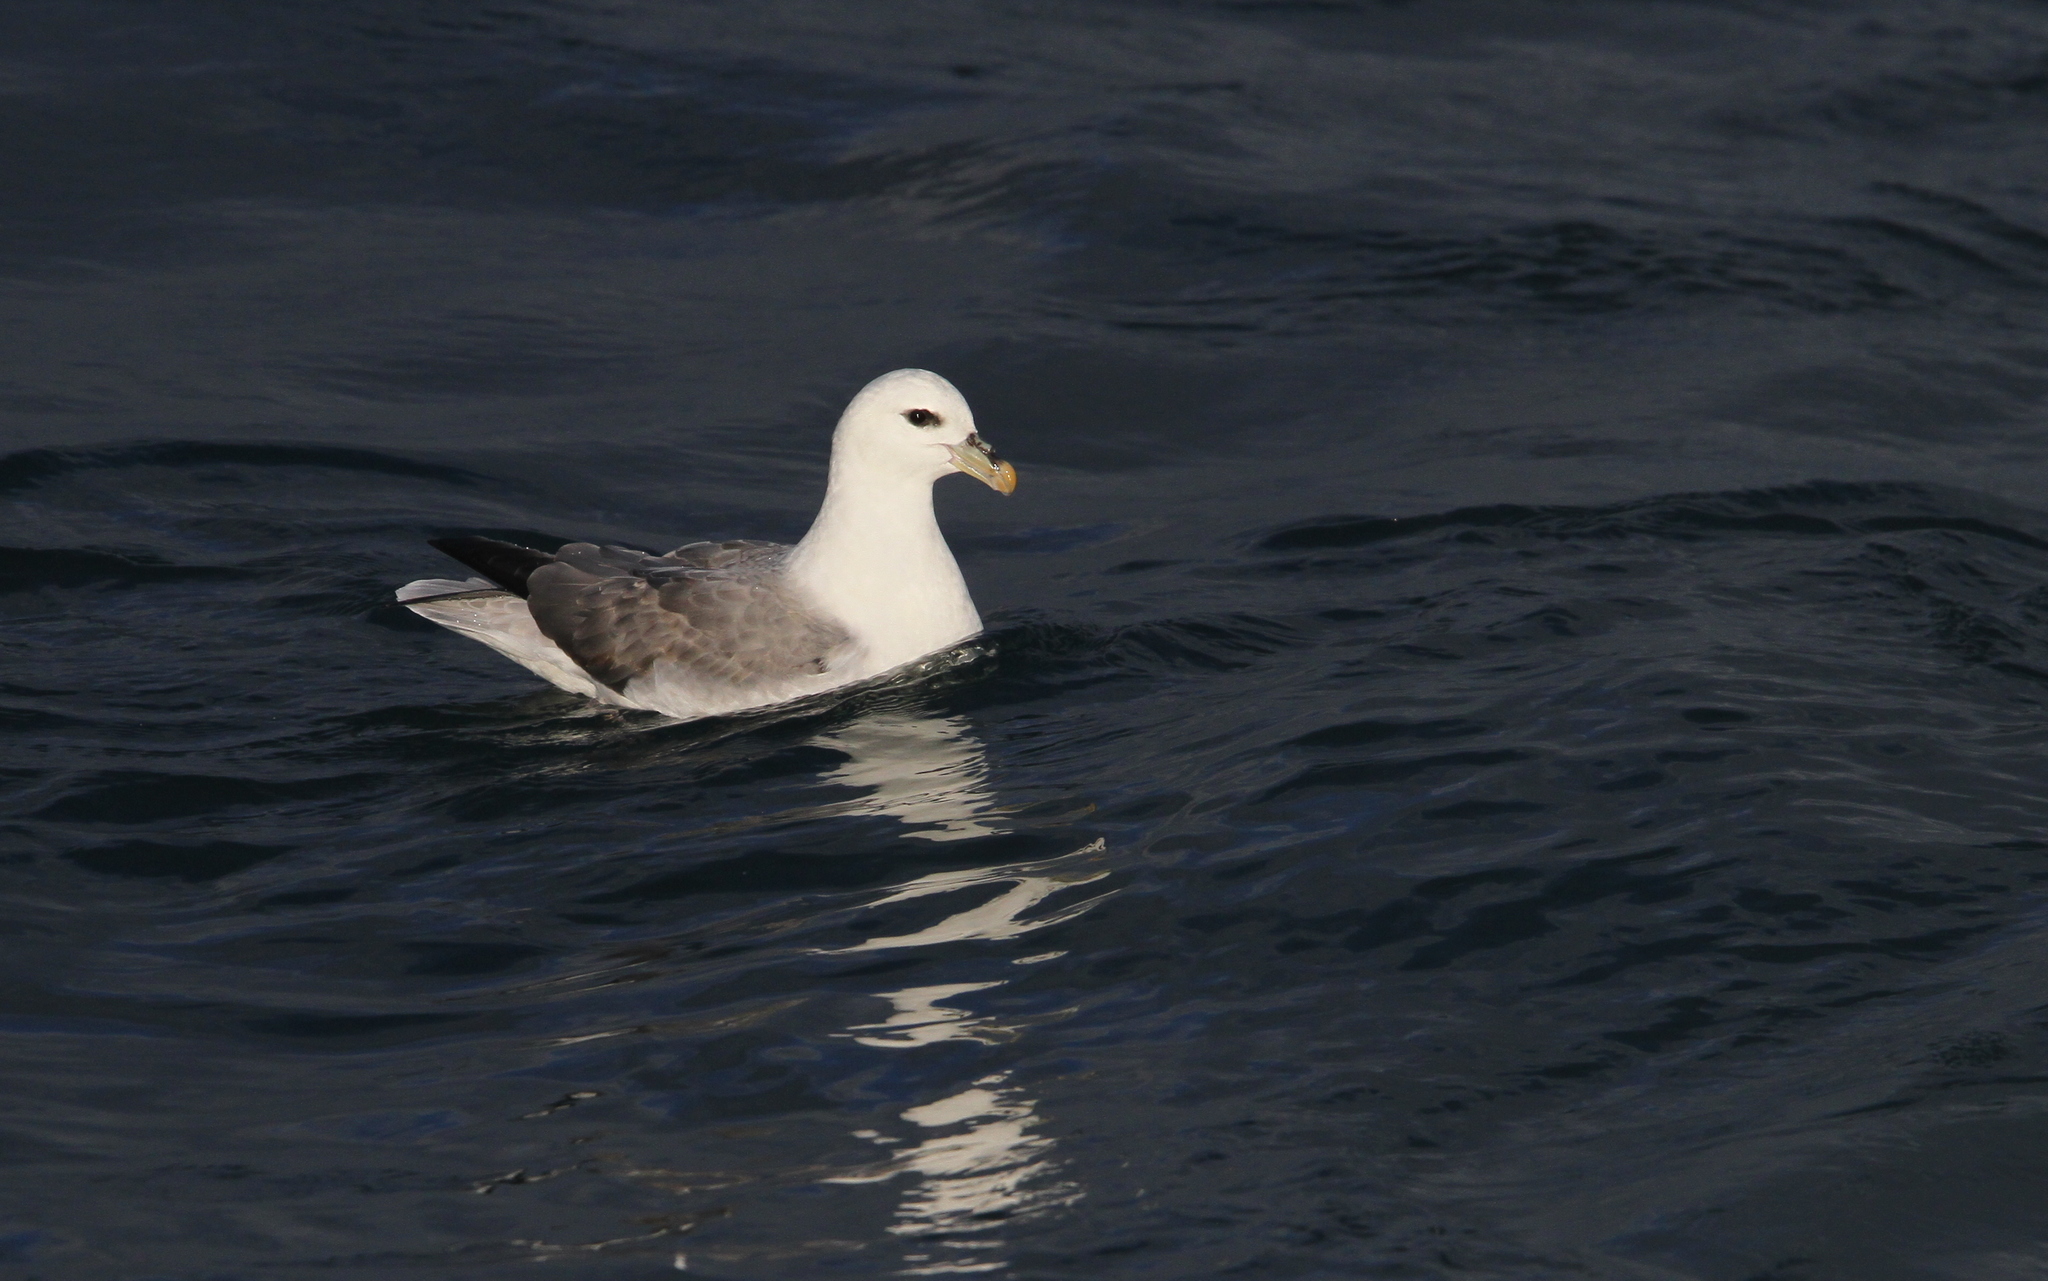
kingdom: Animalia
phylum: Chordata
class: Aves
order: Procellariiformes
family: Procellariidae
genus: Fulmarus
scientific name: Fulmarus glacialis
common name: Northern fulmar
